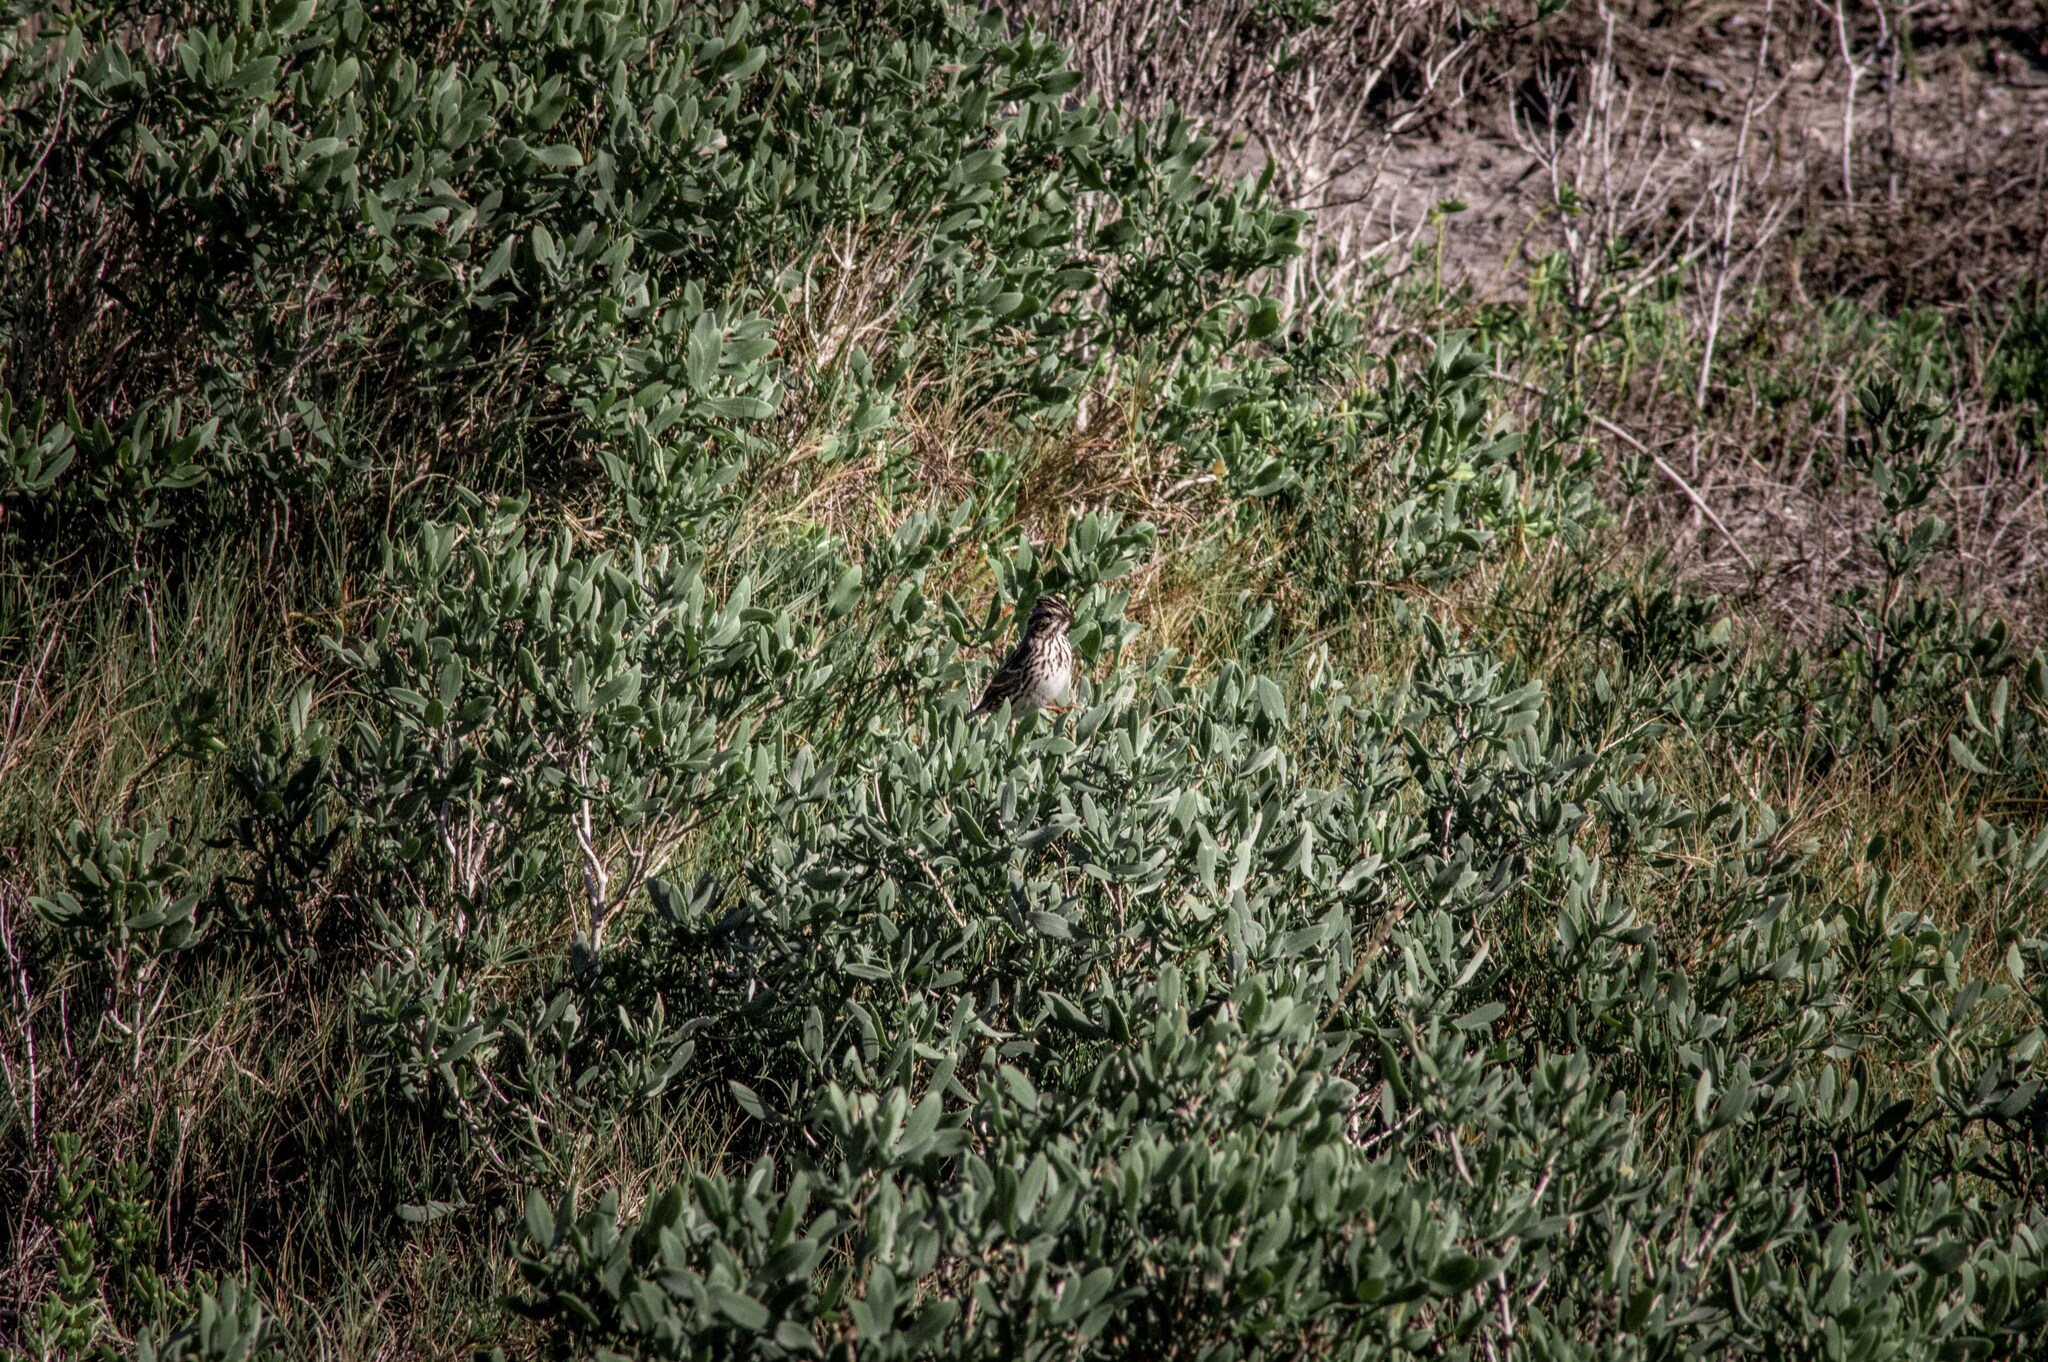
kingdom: Animalia
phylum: Chordata
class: Aves
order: Passeriformes
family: Passerellidae
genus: Passerculus
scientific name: Passerculus sandwichensis
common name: Savannah sparrow
